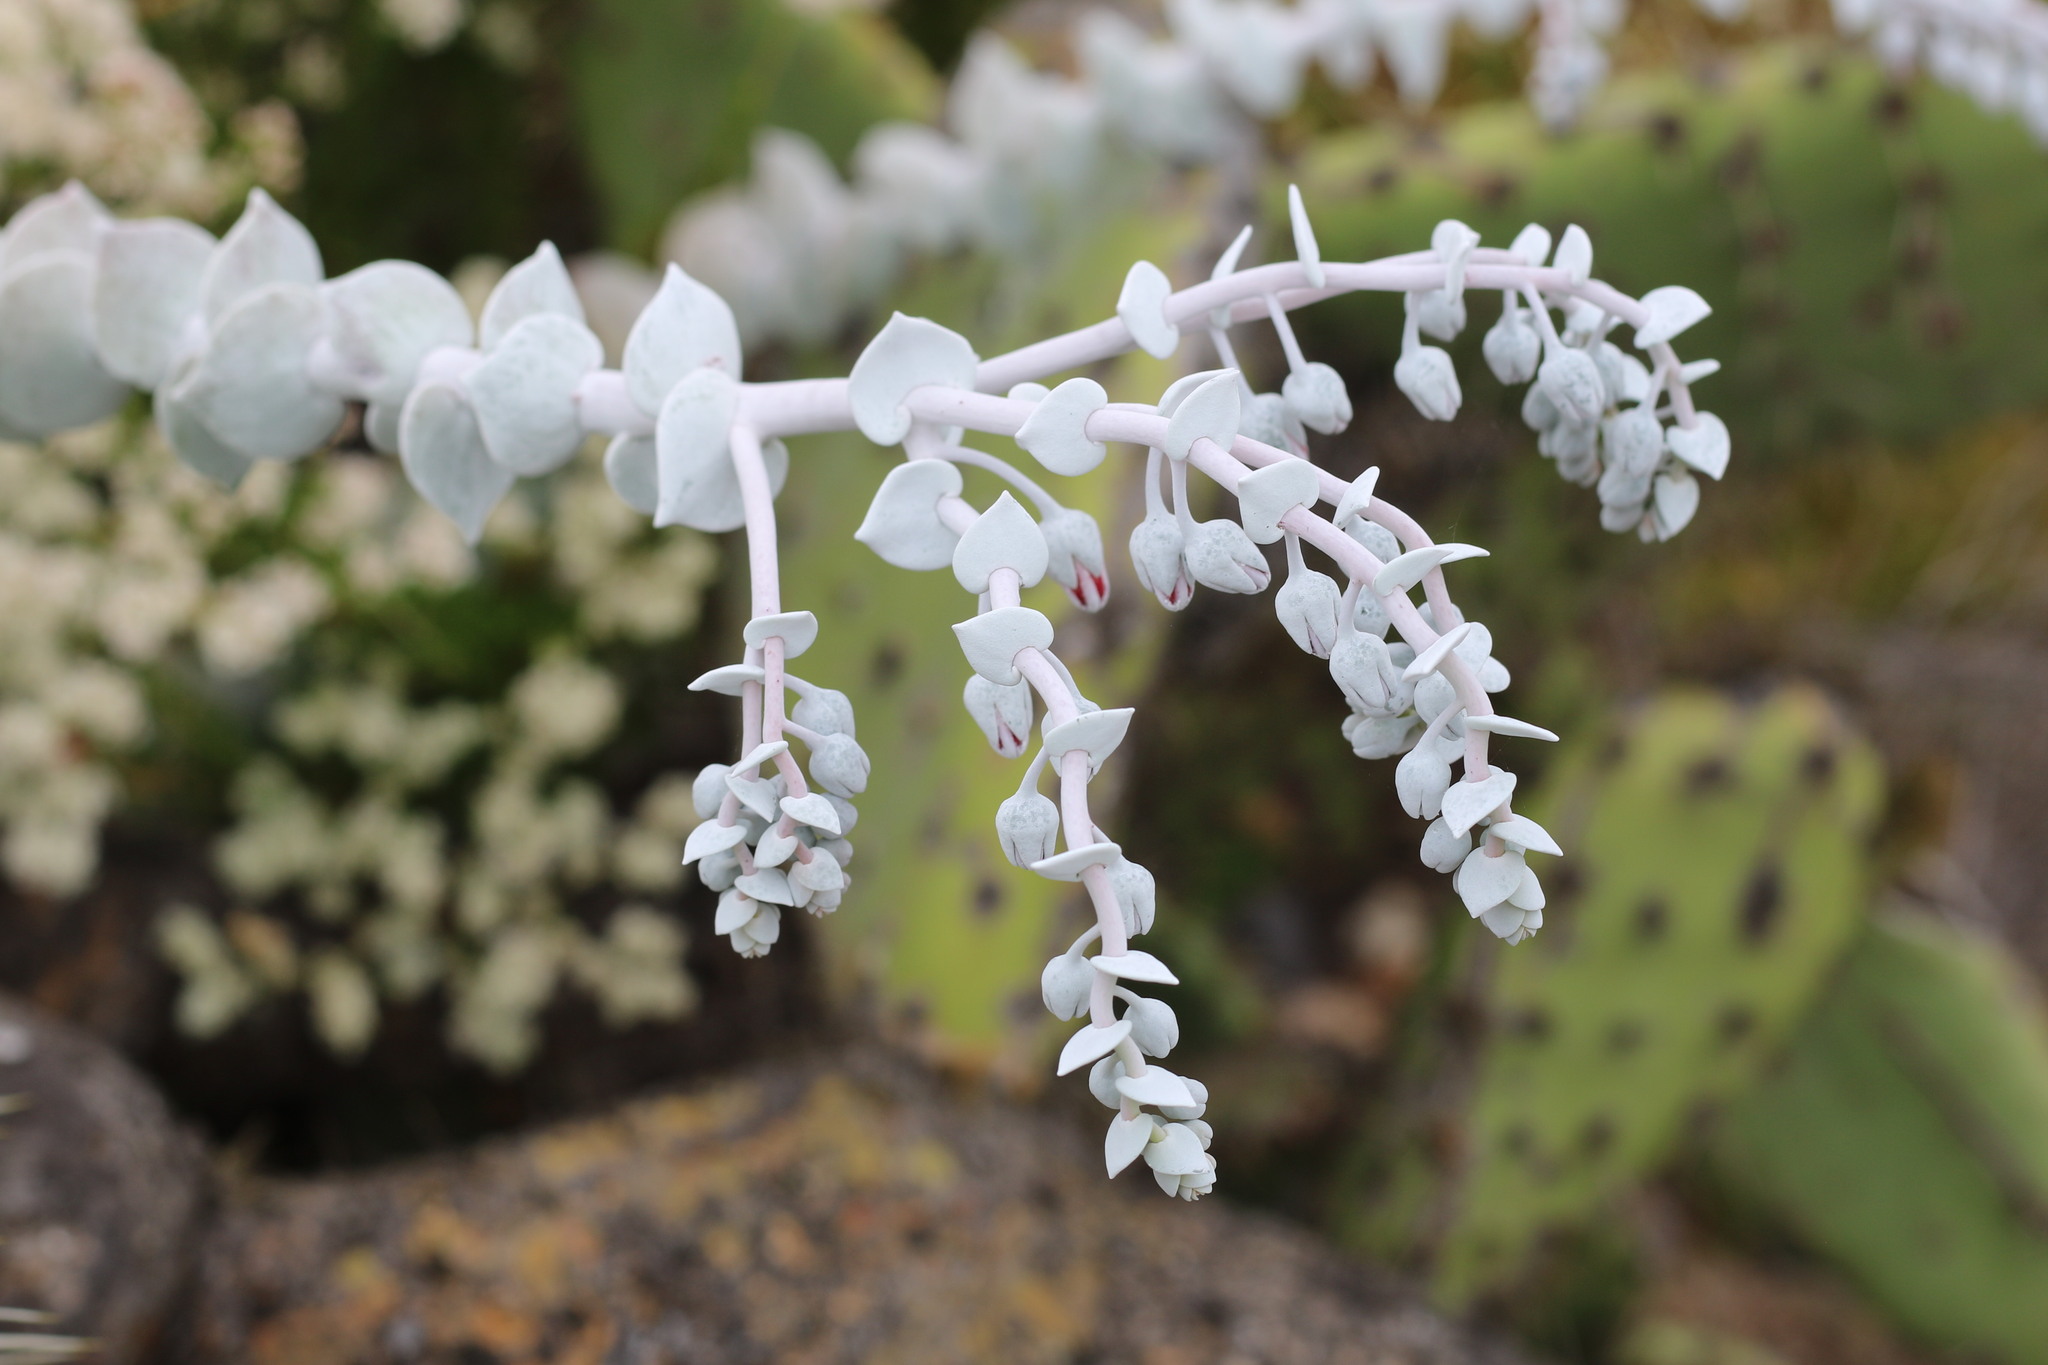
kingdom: Plantae
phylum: Tracheophyta
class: Magnoliopsida
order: Saxifragales
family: Crassulaceae
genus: Dudleya
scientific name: Dudleya pulverulenta
